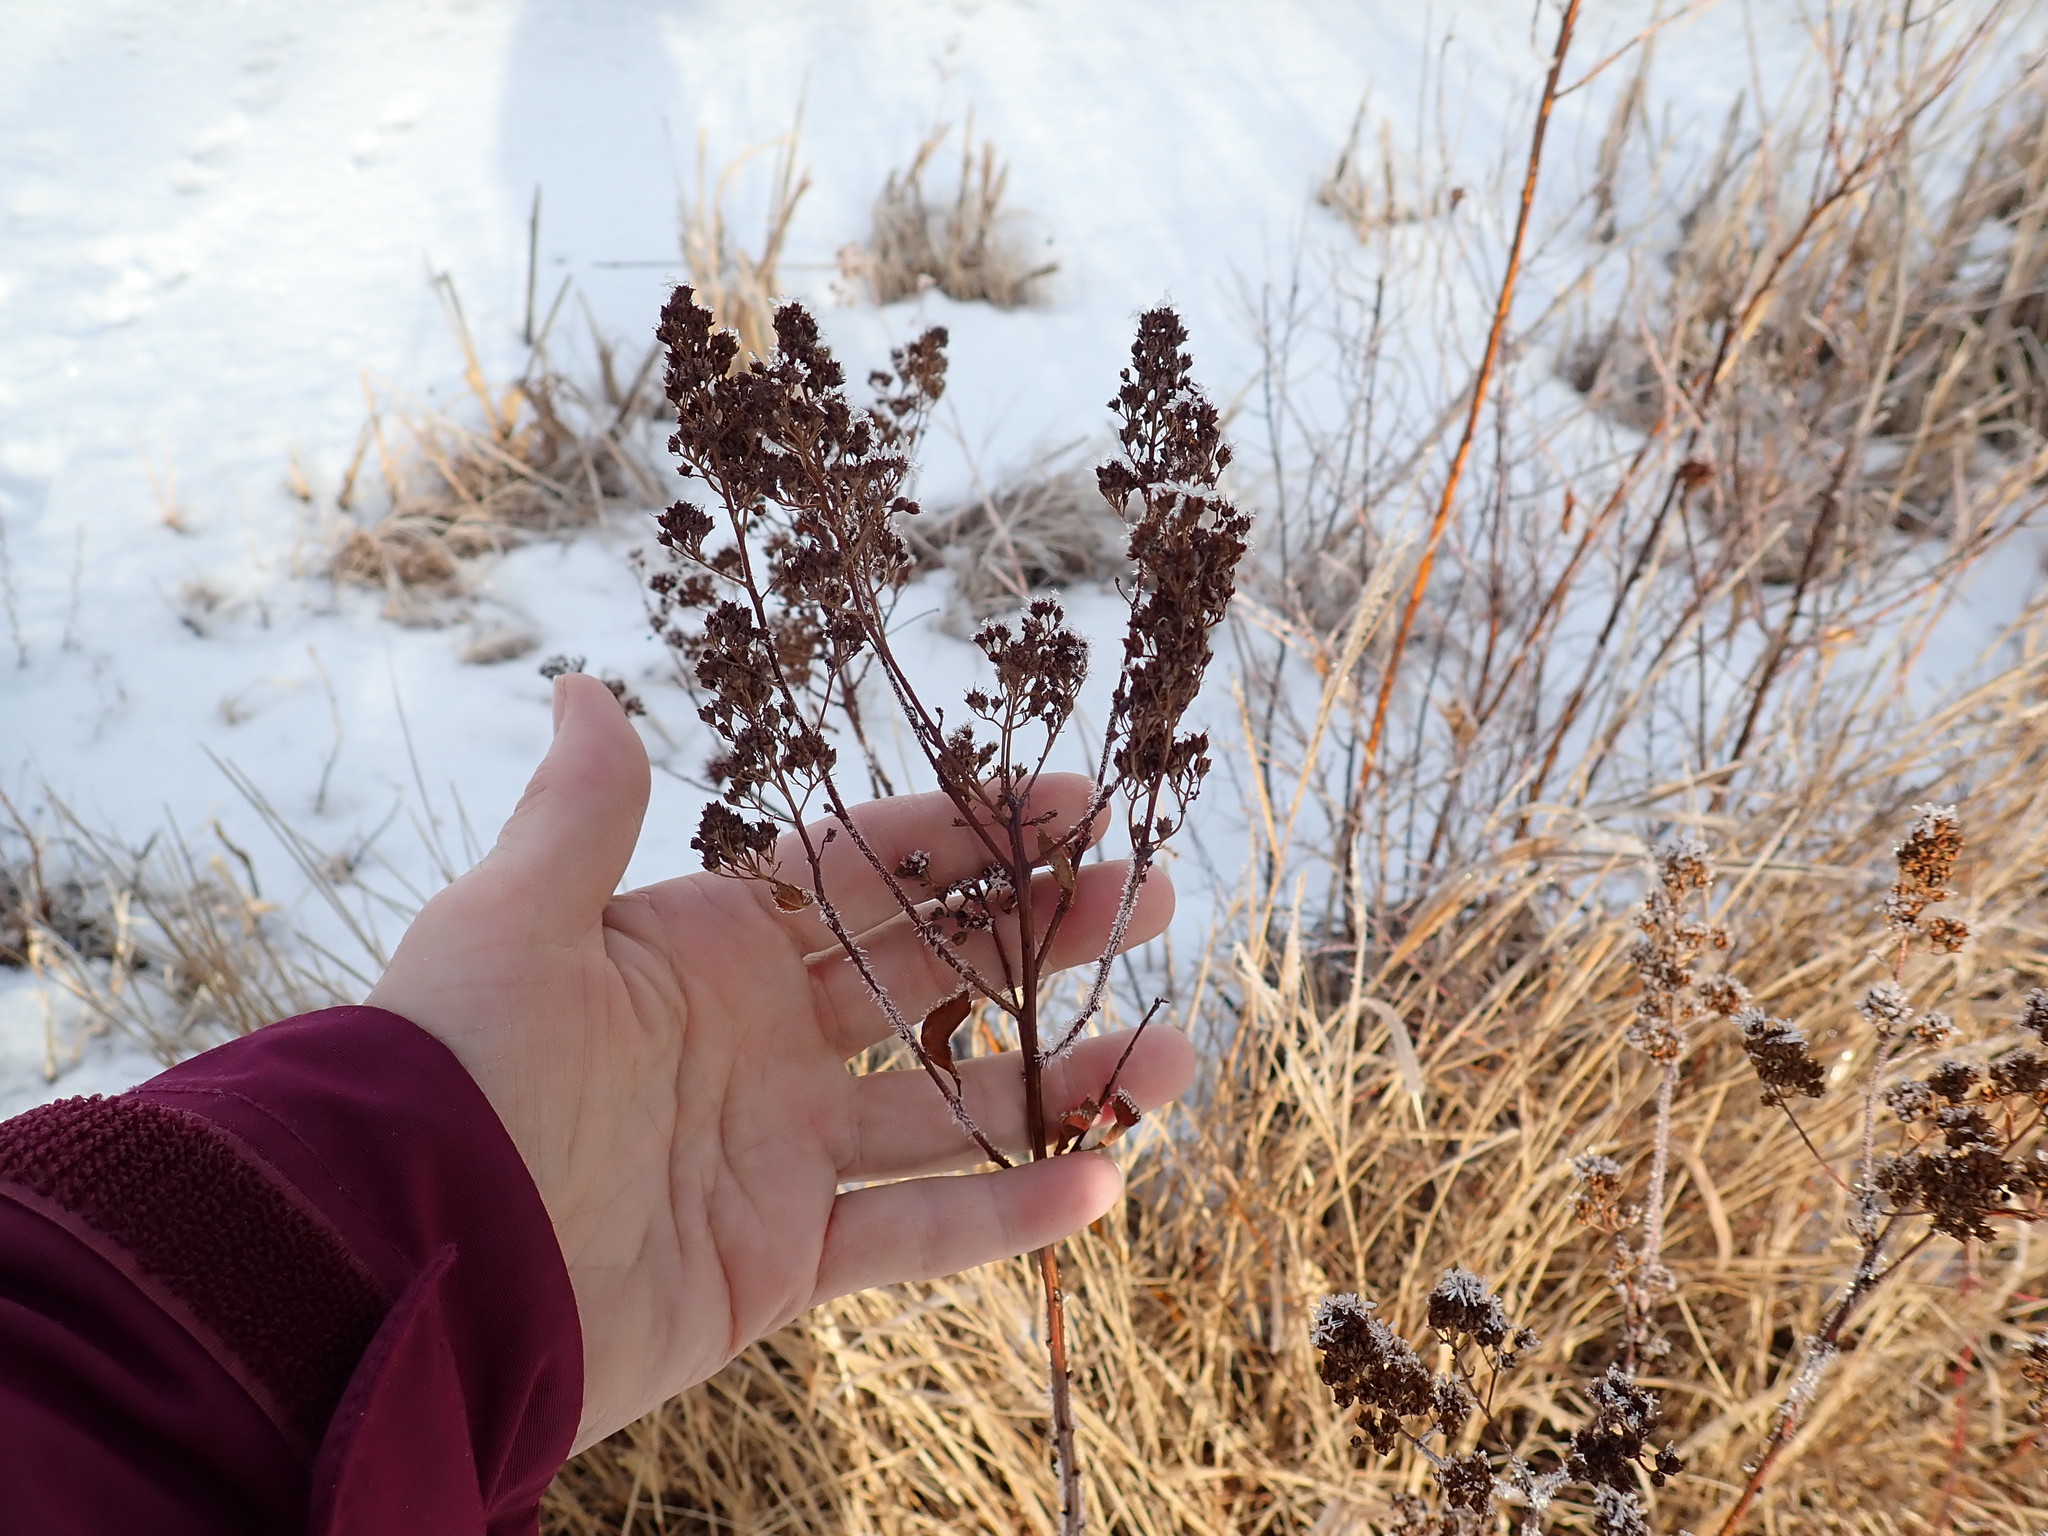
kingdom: Plantae
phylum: Tracheophyta
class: Magnoliopsida
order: Rosales
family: Rosaceae
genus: Spiraea
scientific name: Spiraea alba
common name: Pale bridewort
